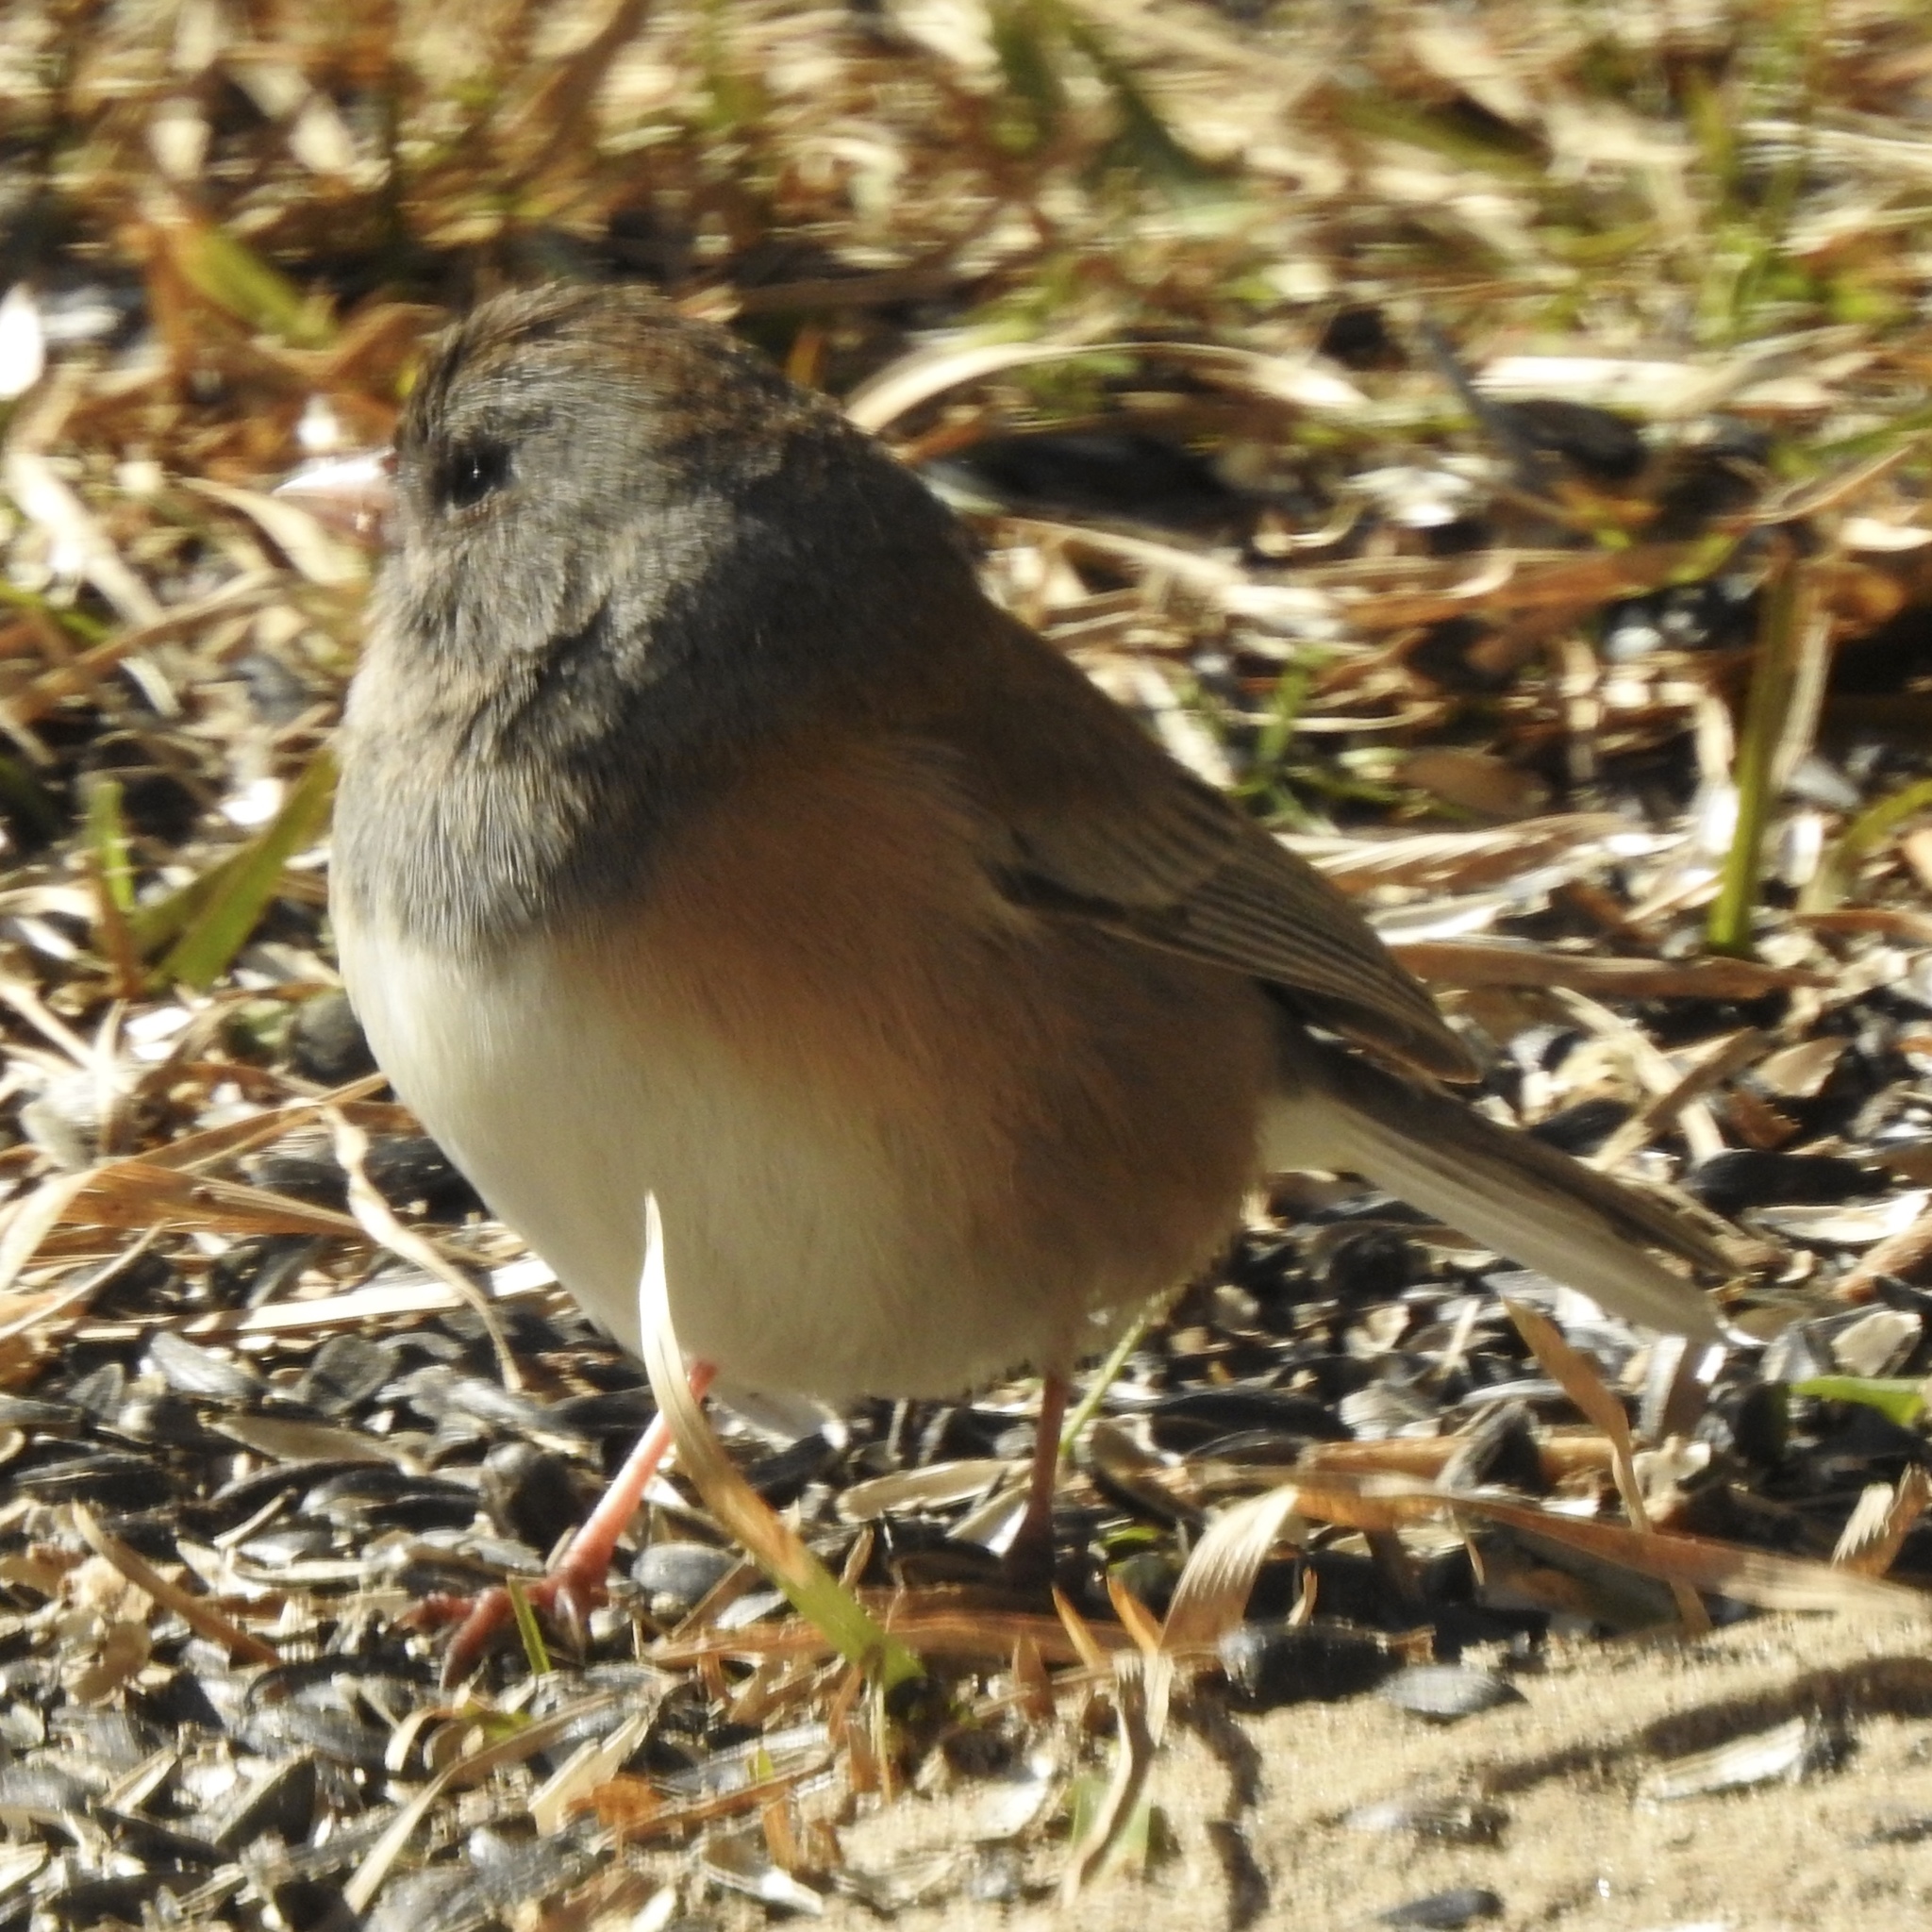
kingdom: Animalia
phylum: Chordata
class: Aves
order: Passeriformes
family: Passerellidae
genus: Junco
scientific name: Junco hyemalis
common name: Dark-eyed junco
